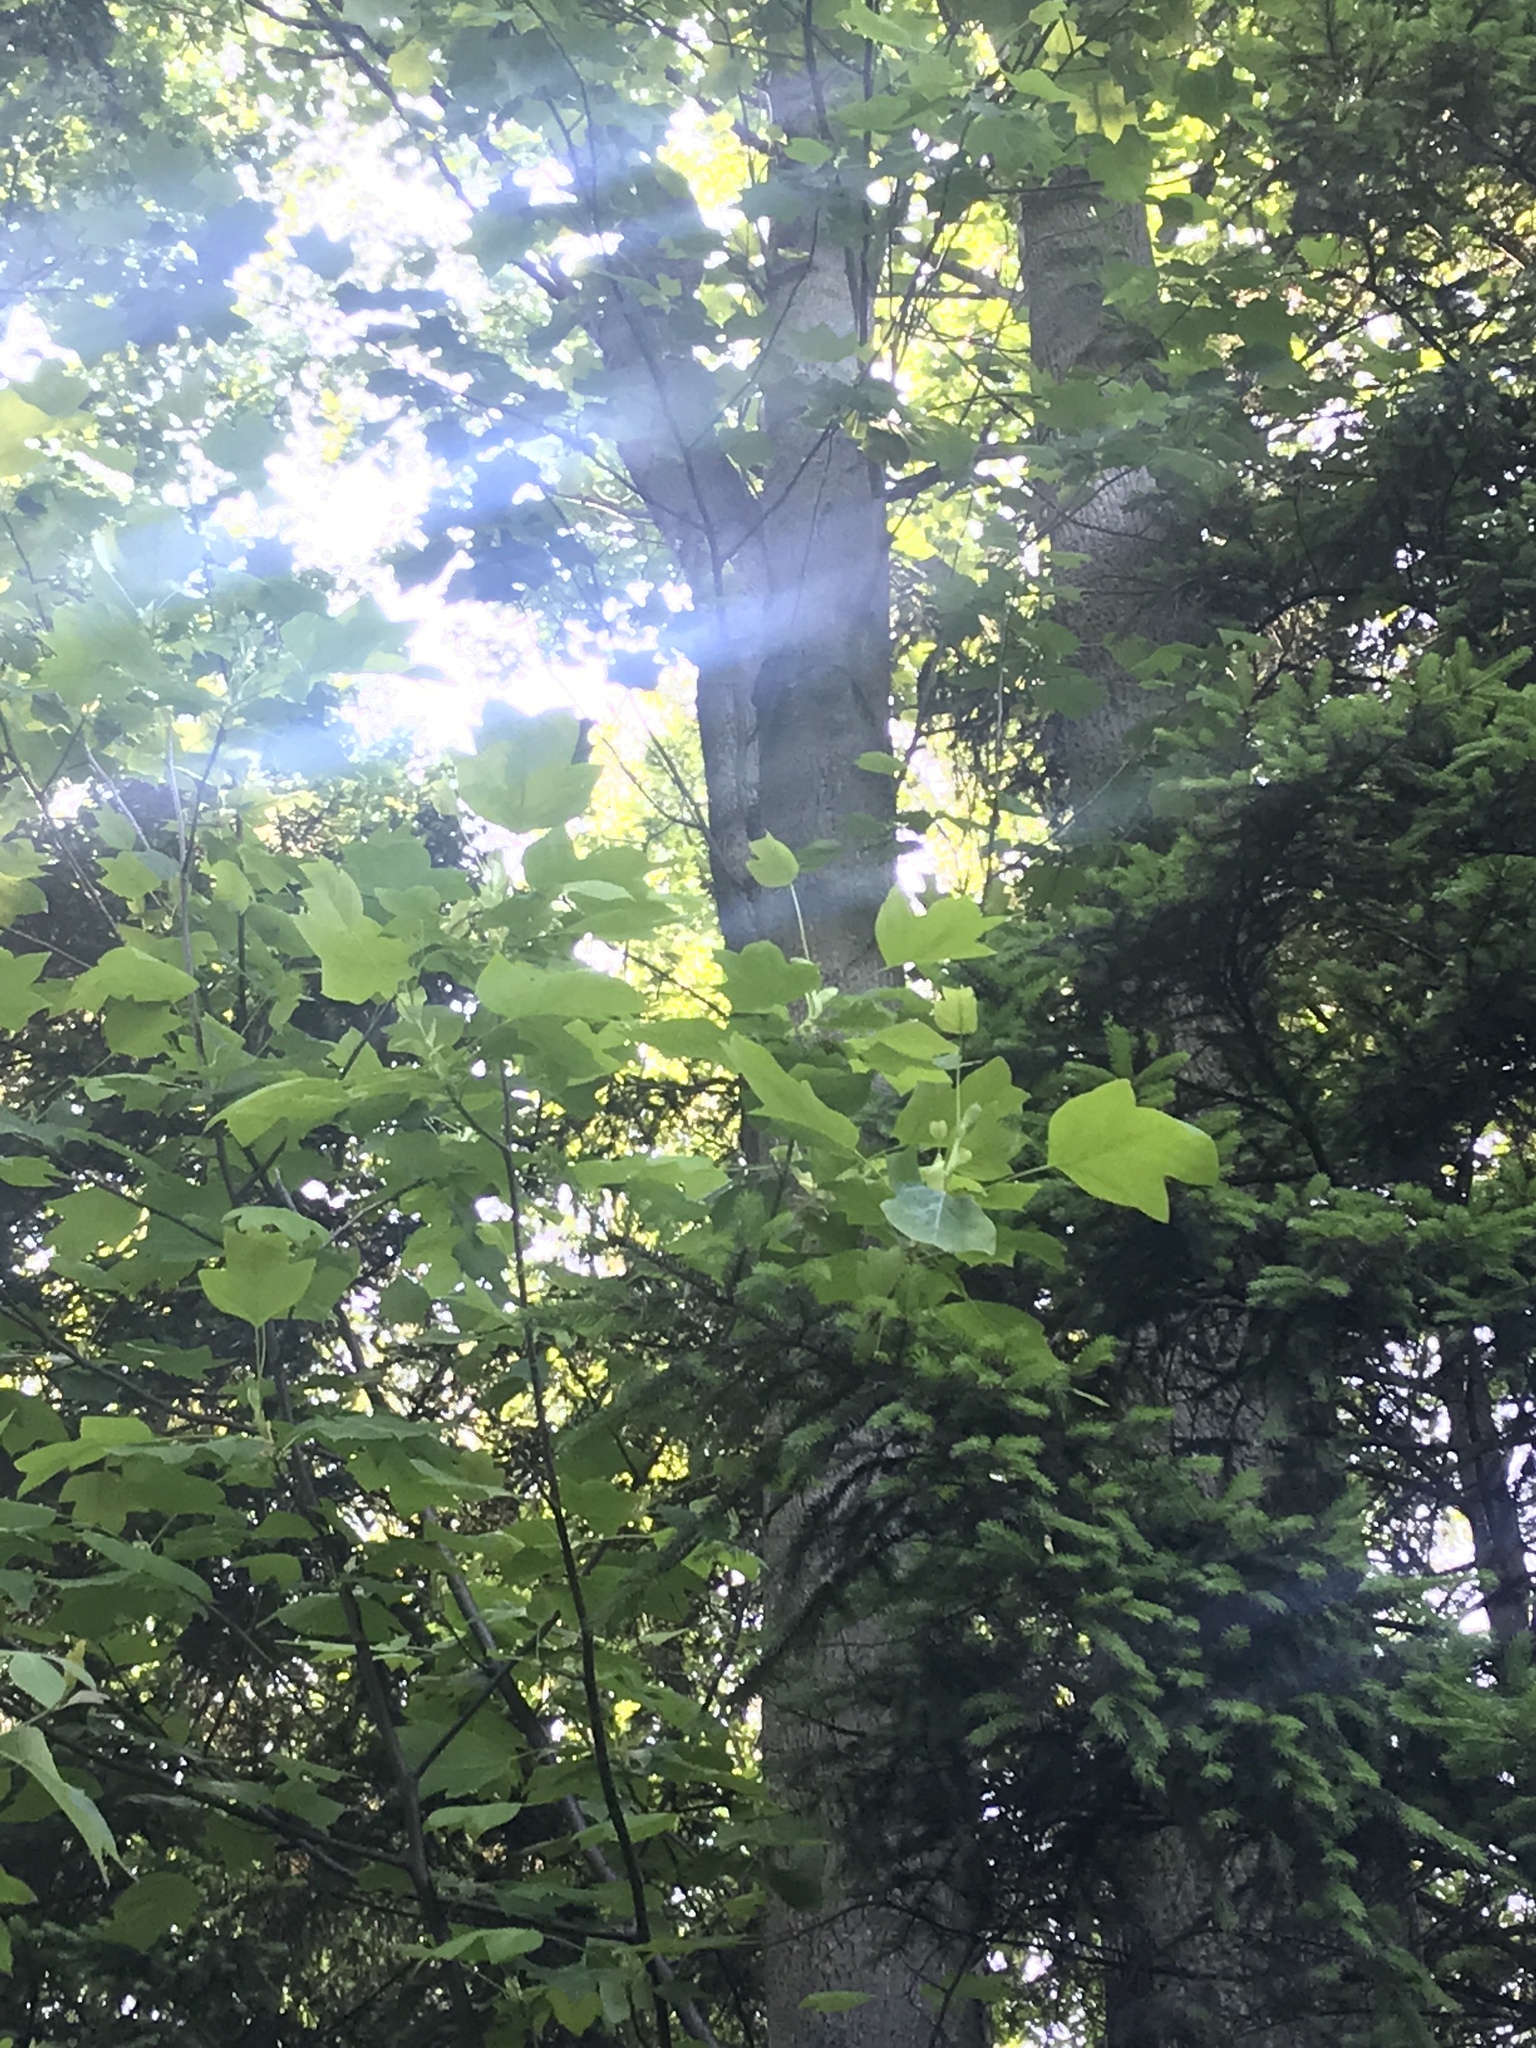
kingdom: Plantae
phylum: Tracheophyta
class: Magnoliopsida
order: Magnoliales
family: Magnoliaceae
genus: Liriodendron
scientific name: Liriodendron tulipifera
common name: Tulip tree
